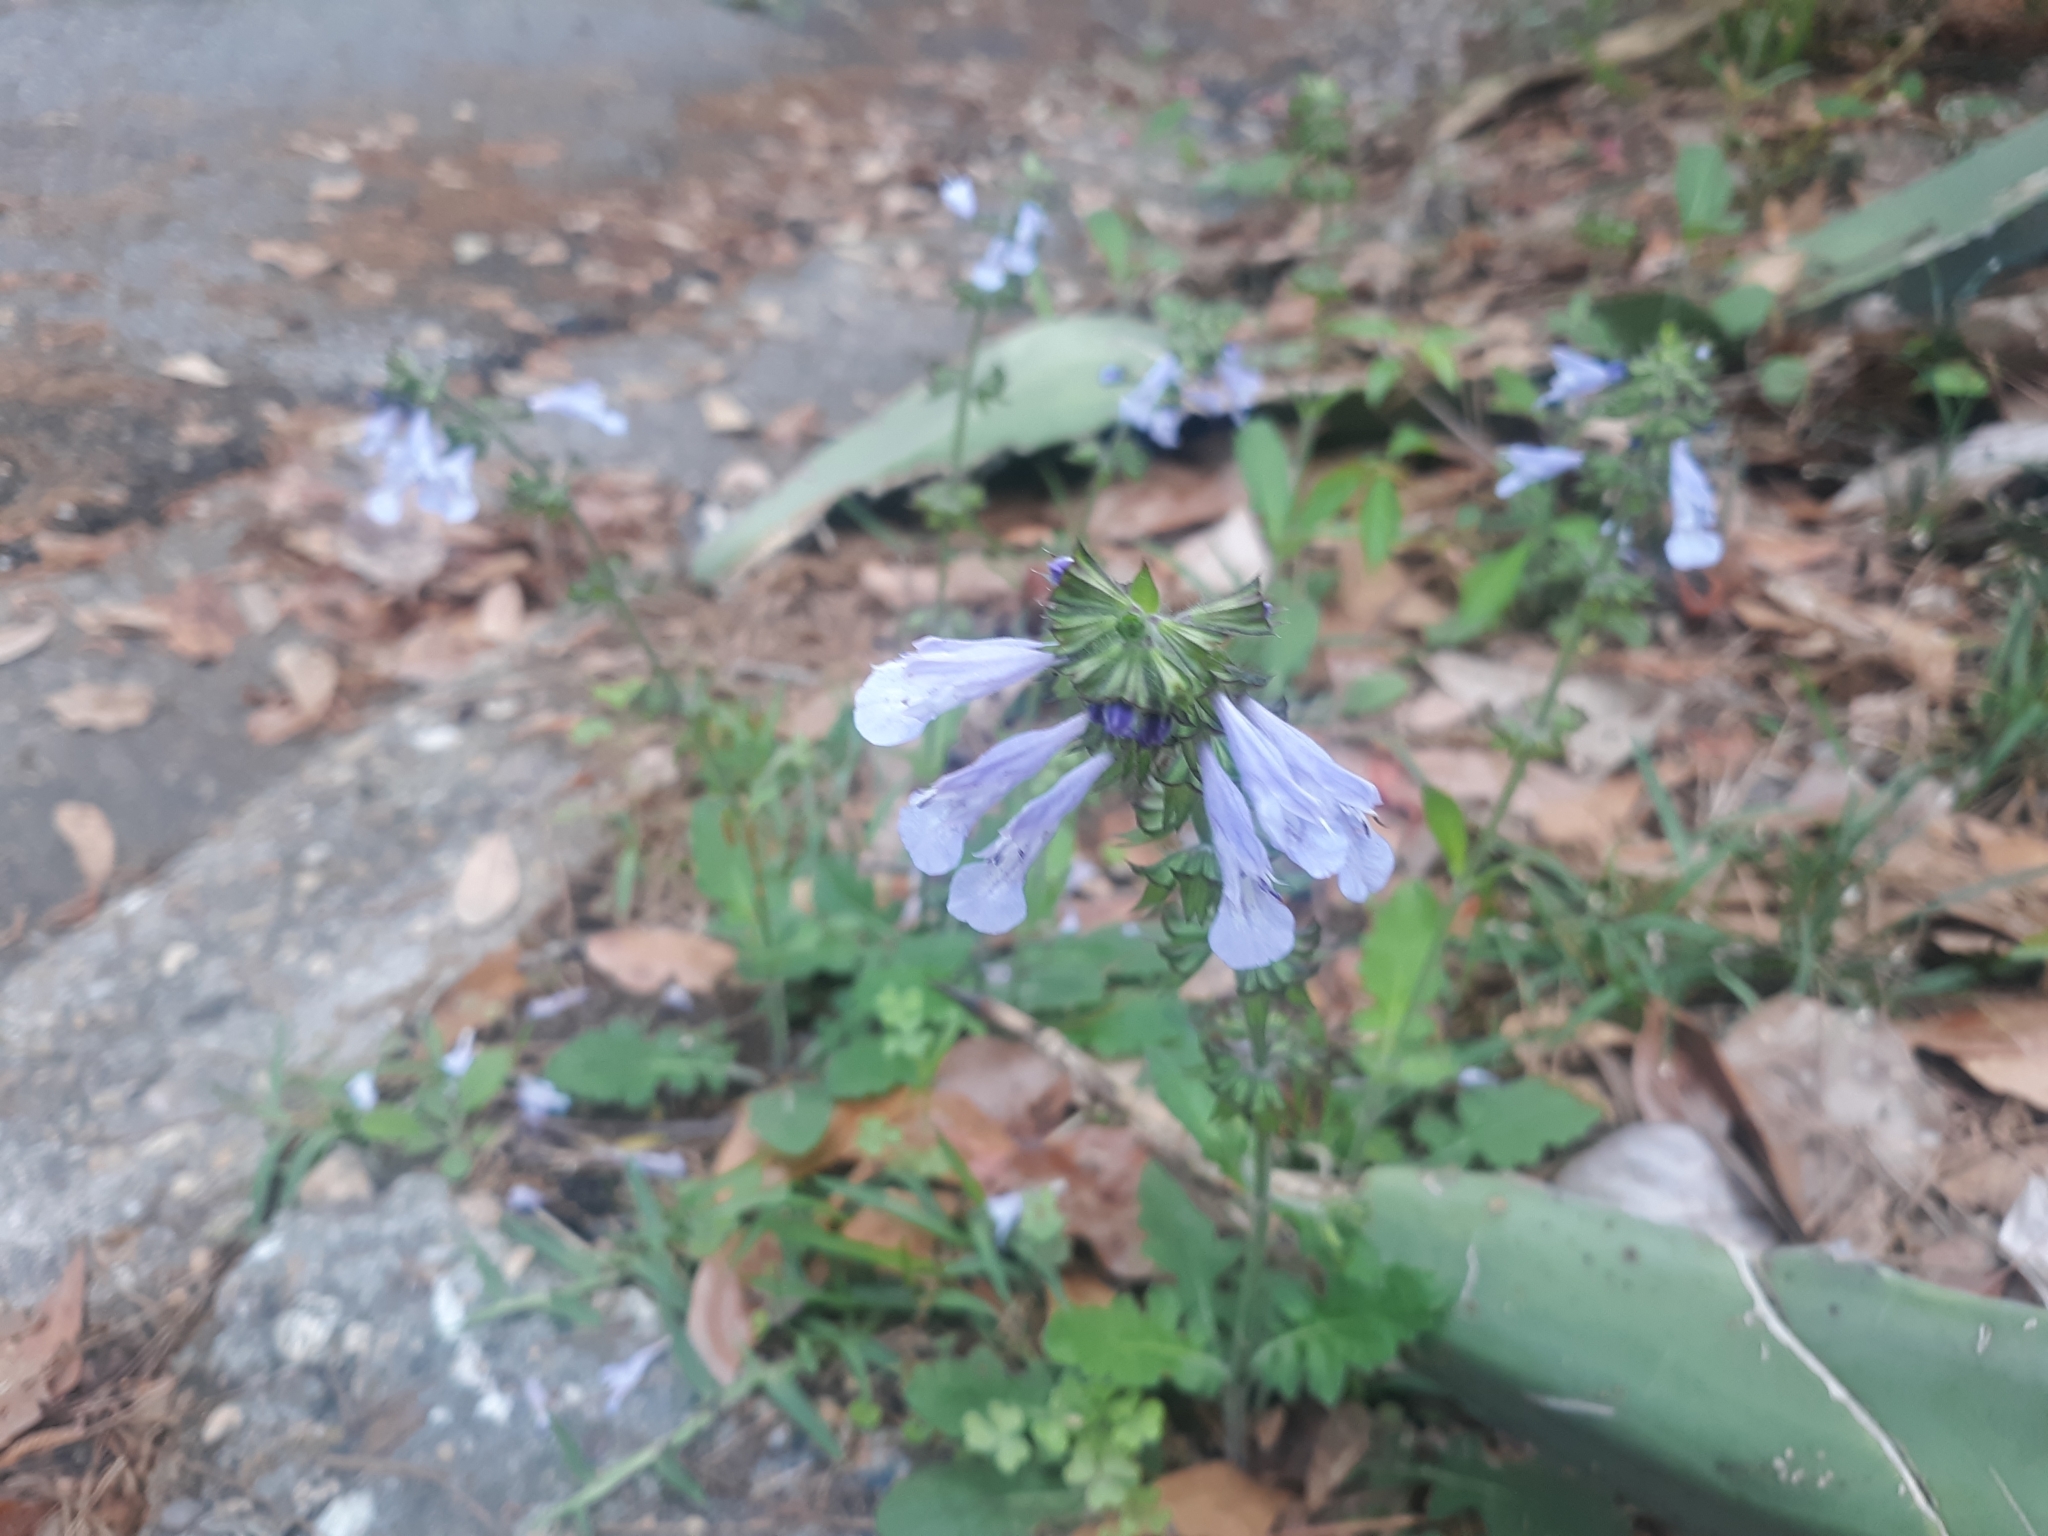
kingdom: Plantae
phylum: Tracheophyta
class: Magnoliopsida
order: Lamiales
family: Lamiaceae
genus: Salvia
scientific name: Salvia lyrata
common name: Cancerweed
